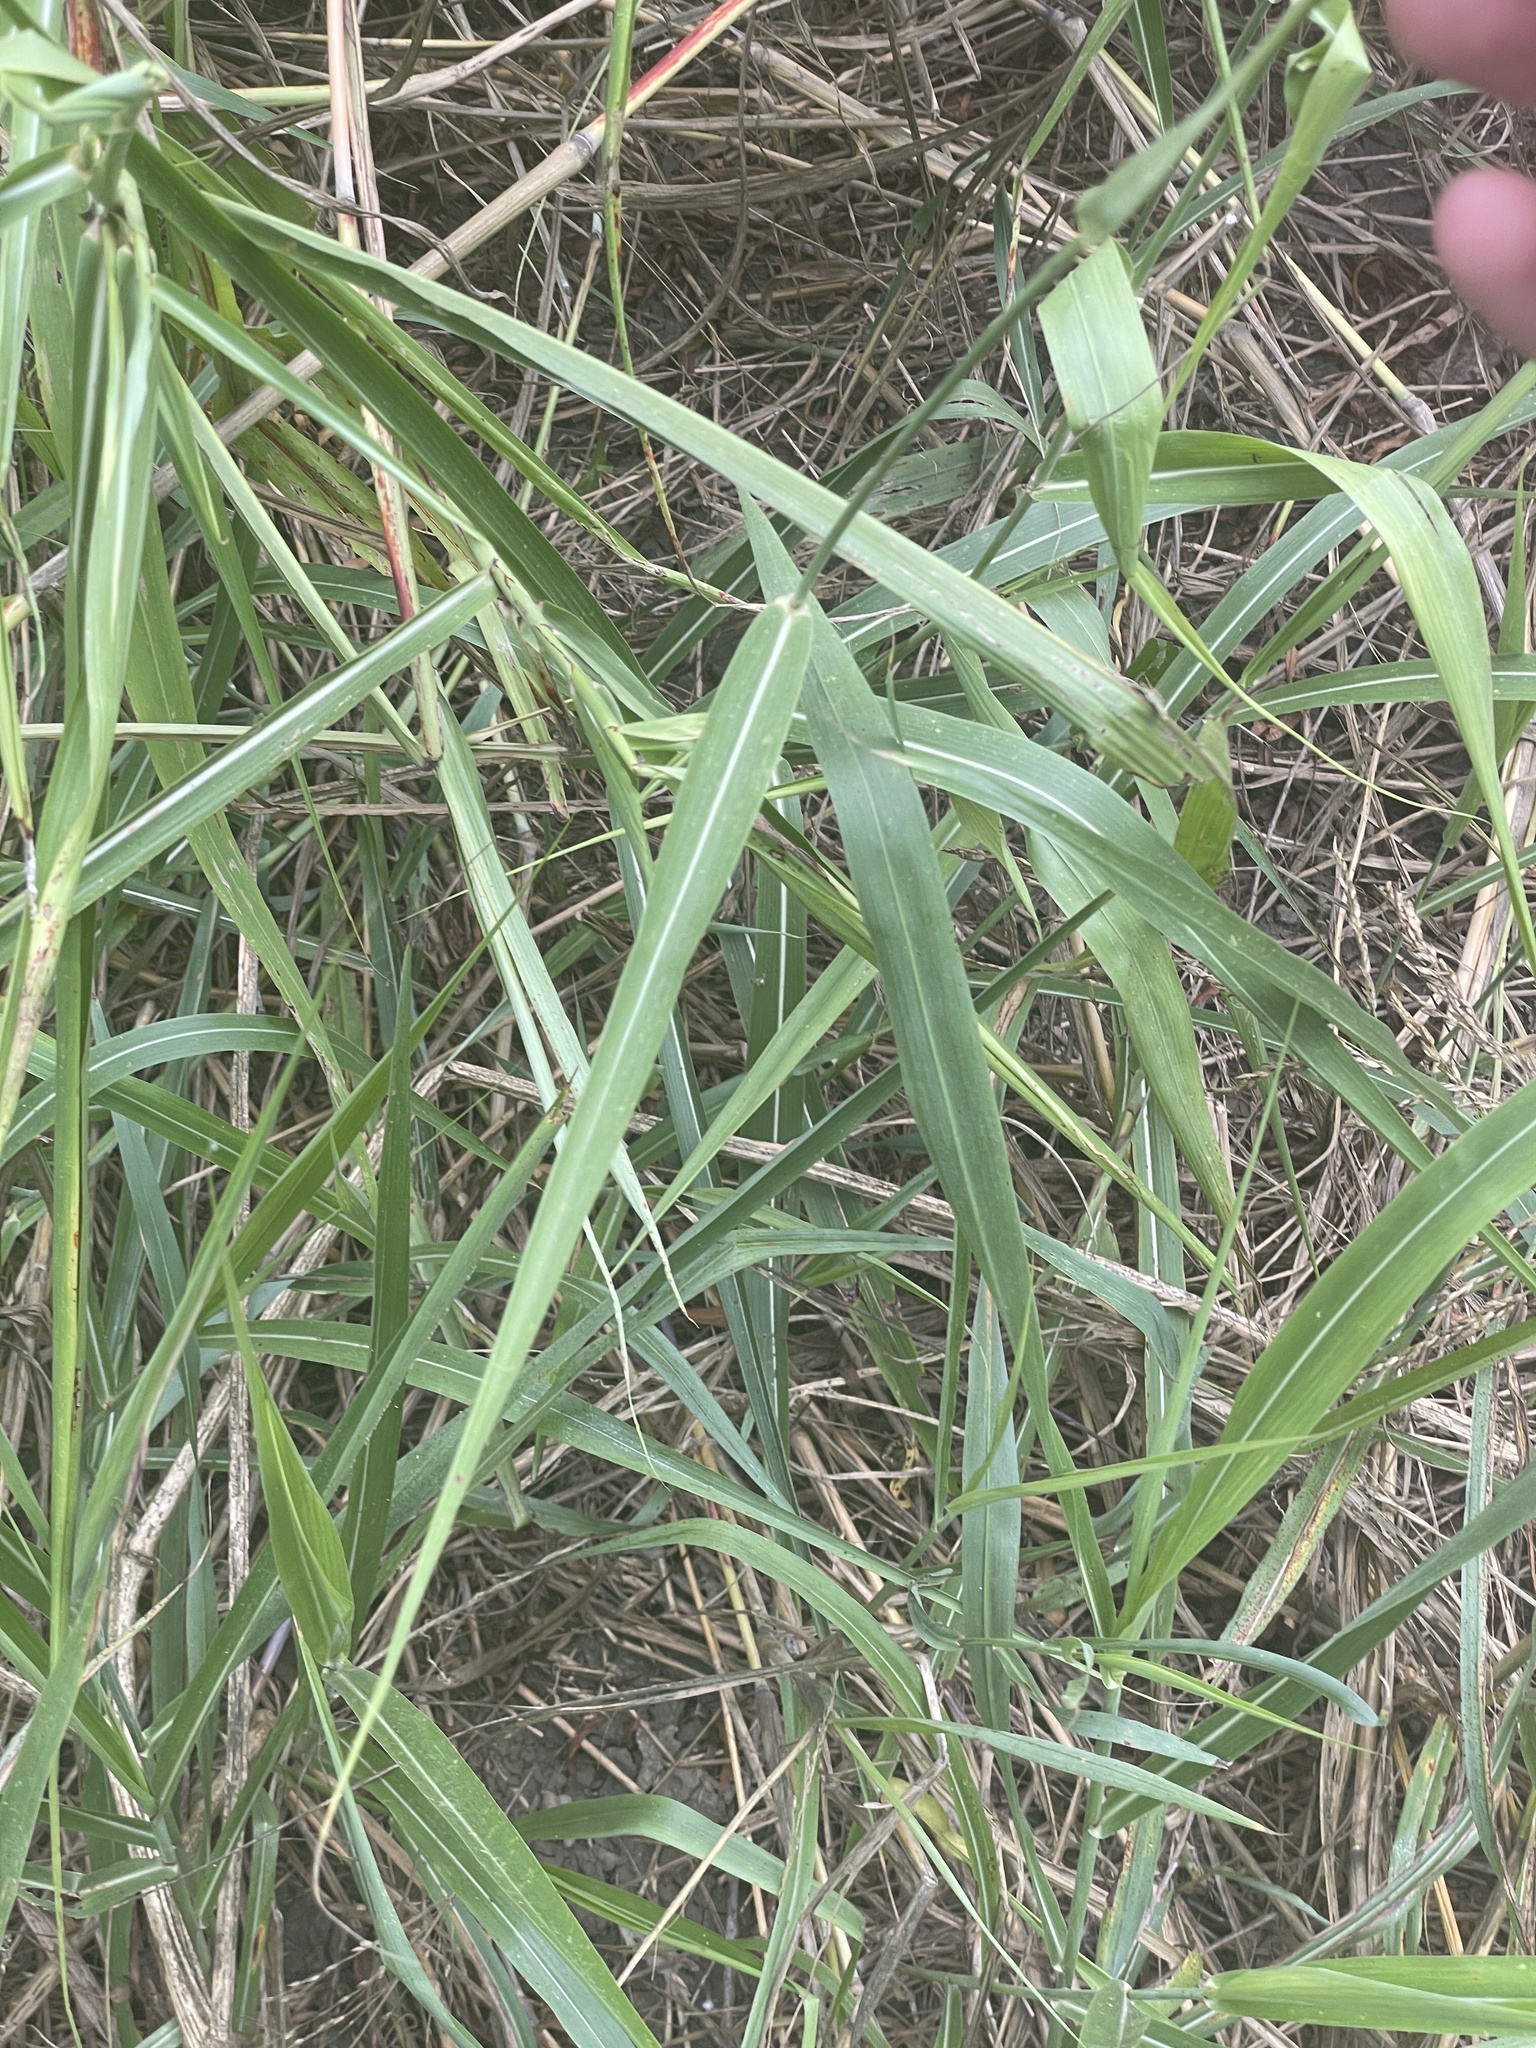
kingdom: Plantae
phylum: Tracheophyta
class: Liliopsida
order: Poales
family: Poaceae
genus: Sorghum
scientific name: Sorghum halepense
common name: Johnson-grass
